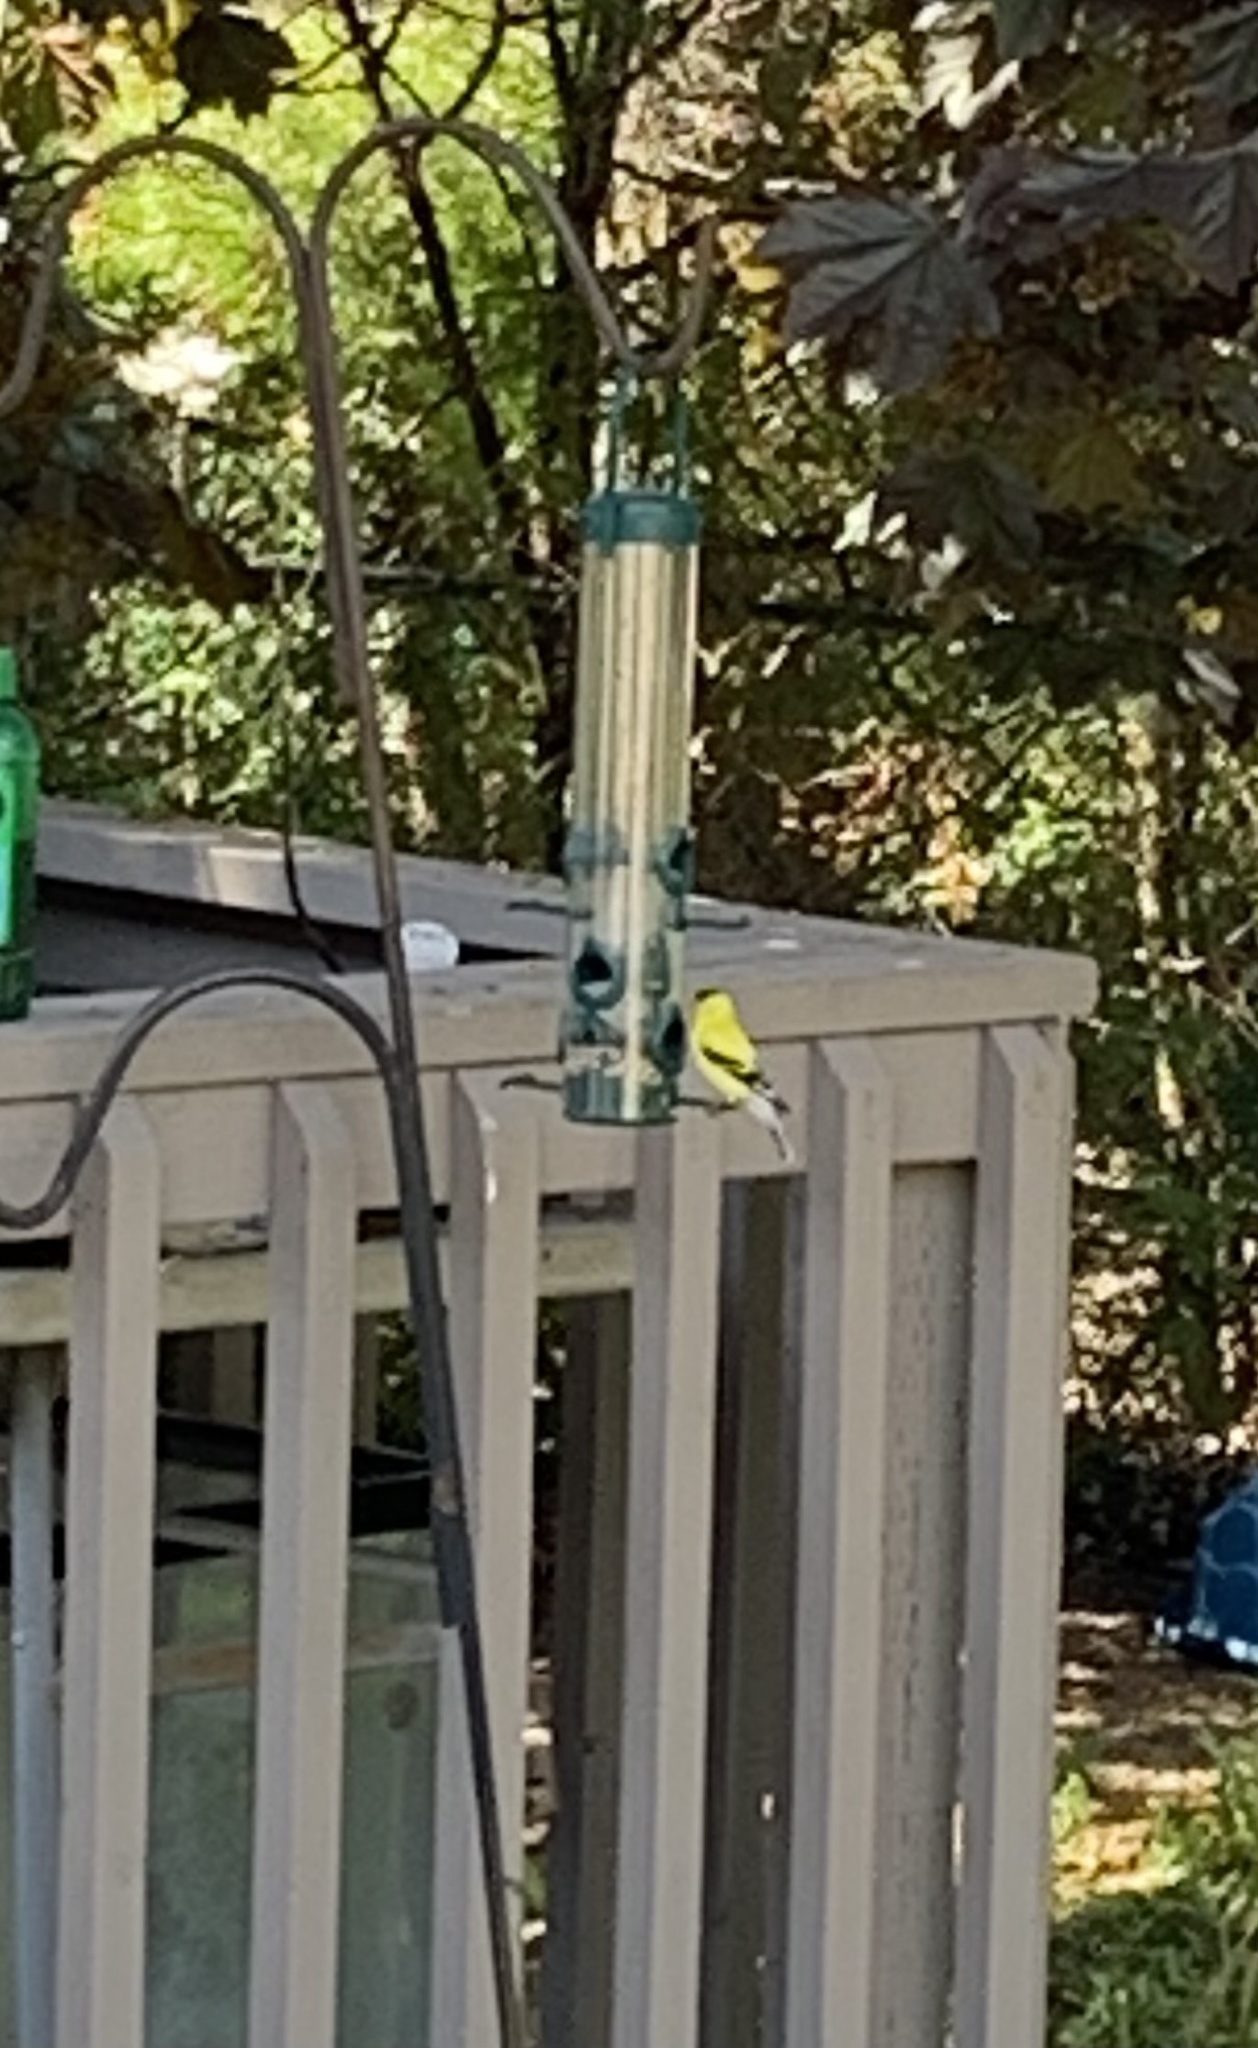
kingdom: Animalia
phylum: Chordata
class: Aves
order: Passeriformes
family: Fringillidae
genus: Spinus
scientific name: Spinus tristis
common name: American goldfinch
